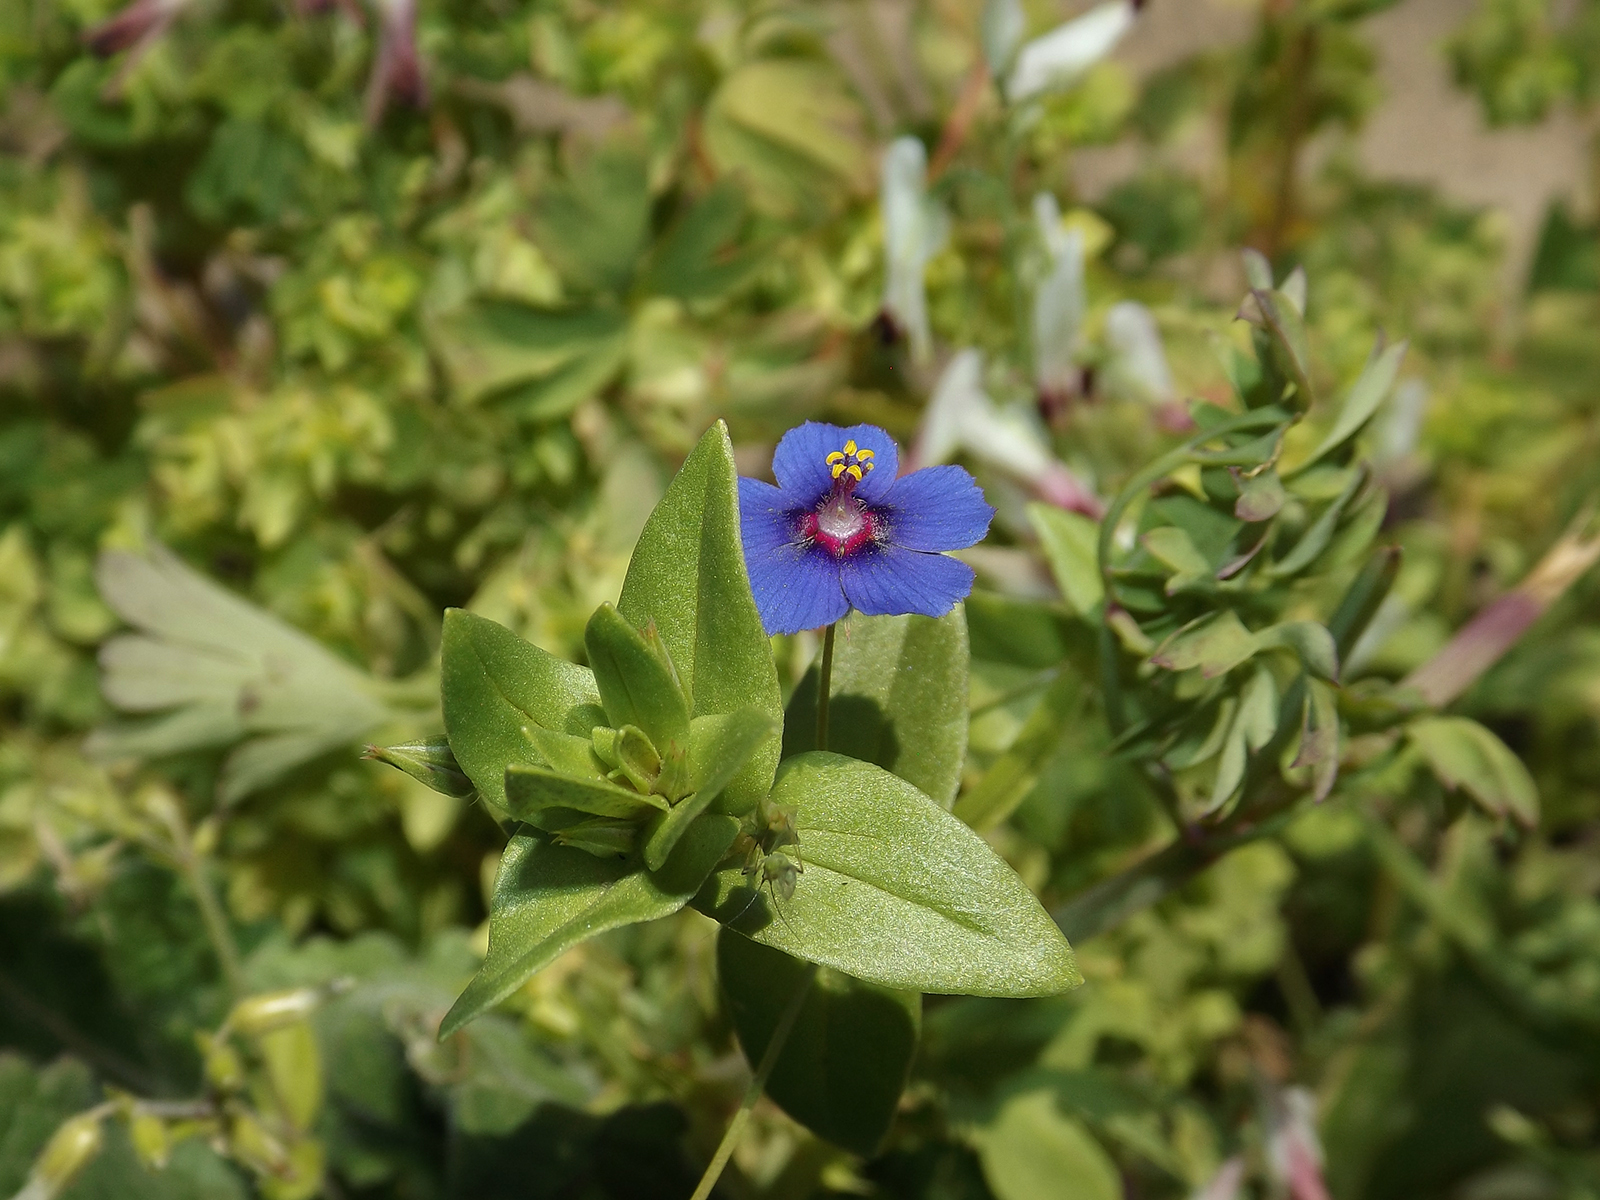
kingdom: Plantae
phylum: Tracheophyta
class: Magnoliopsida
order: Ericales
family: Primulaceae
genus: Lysimachia
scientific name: Lysimachia arvensis
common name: Scarlet pimpernel
